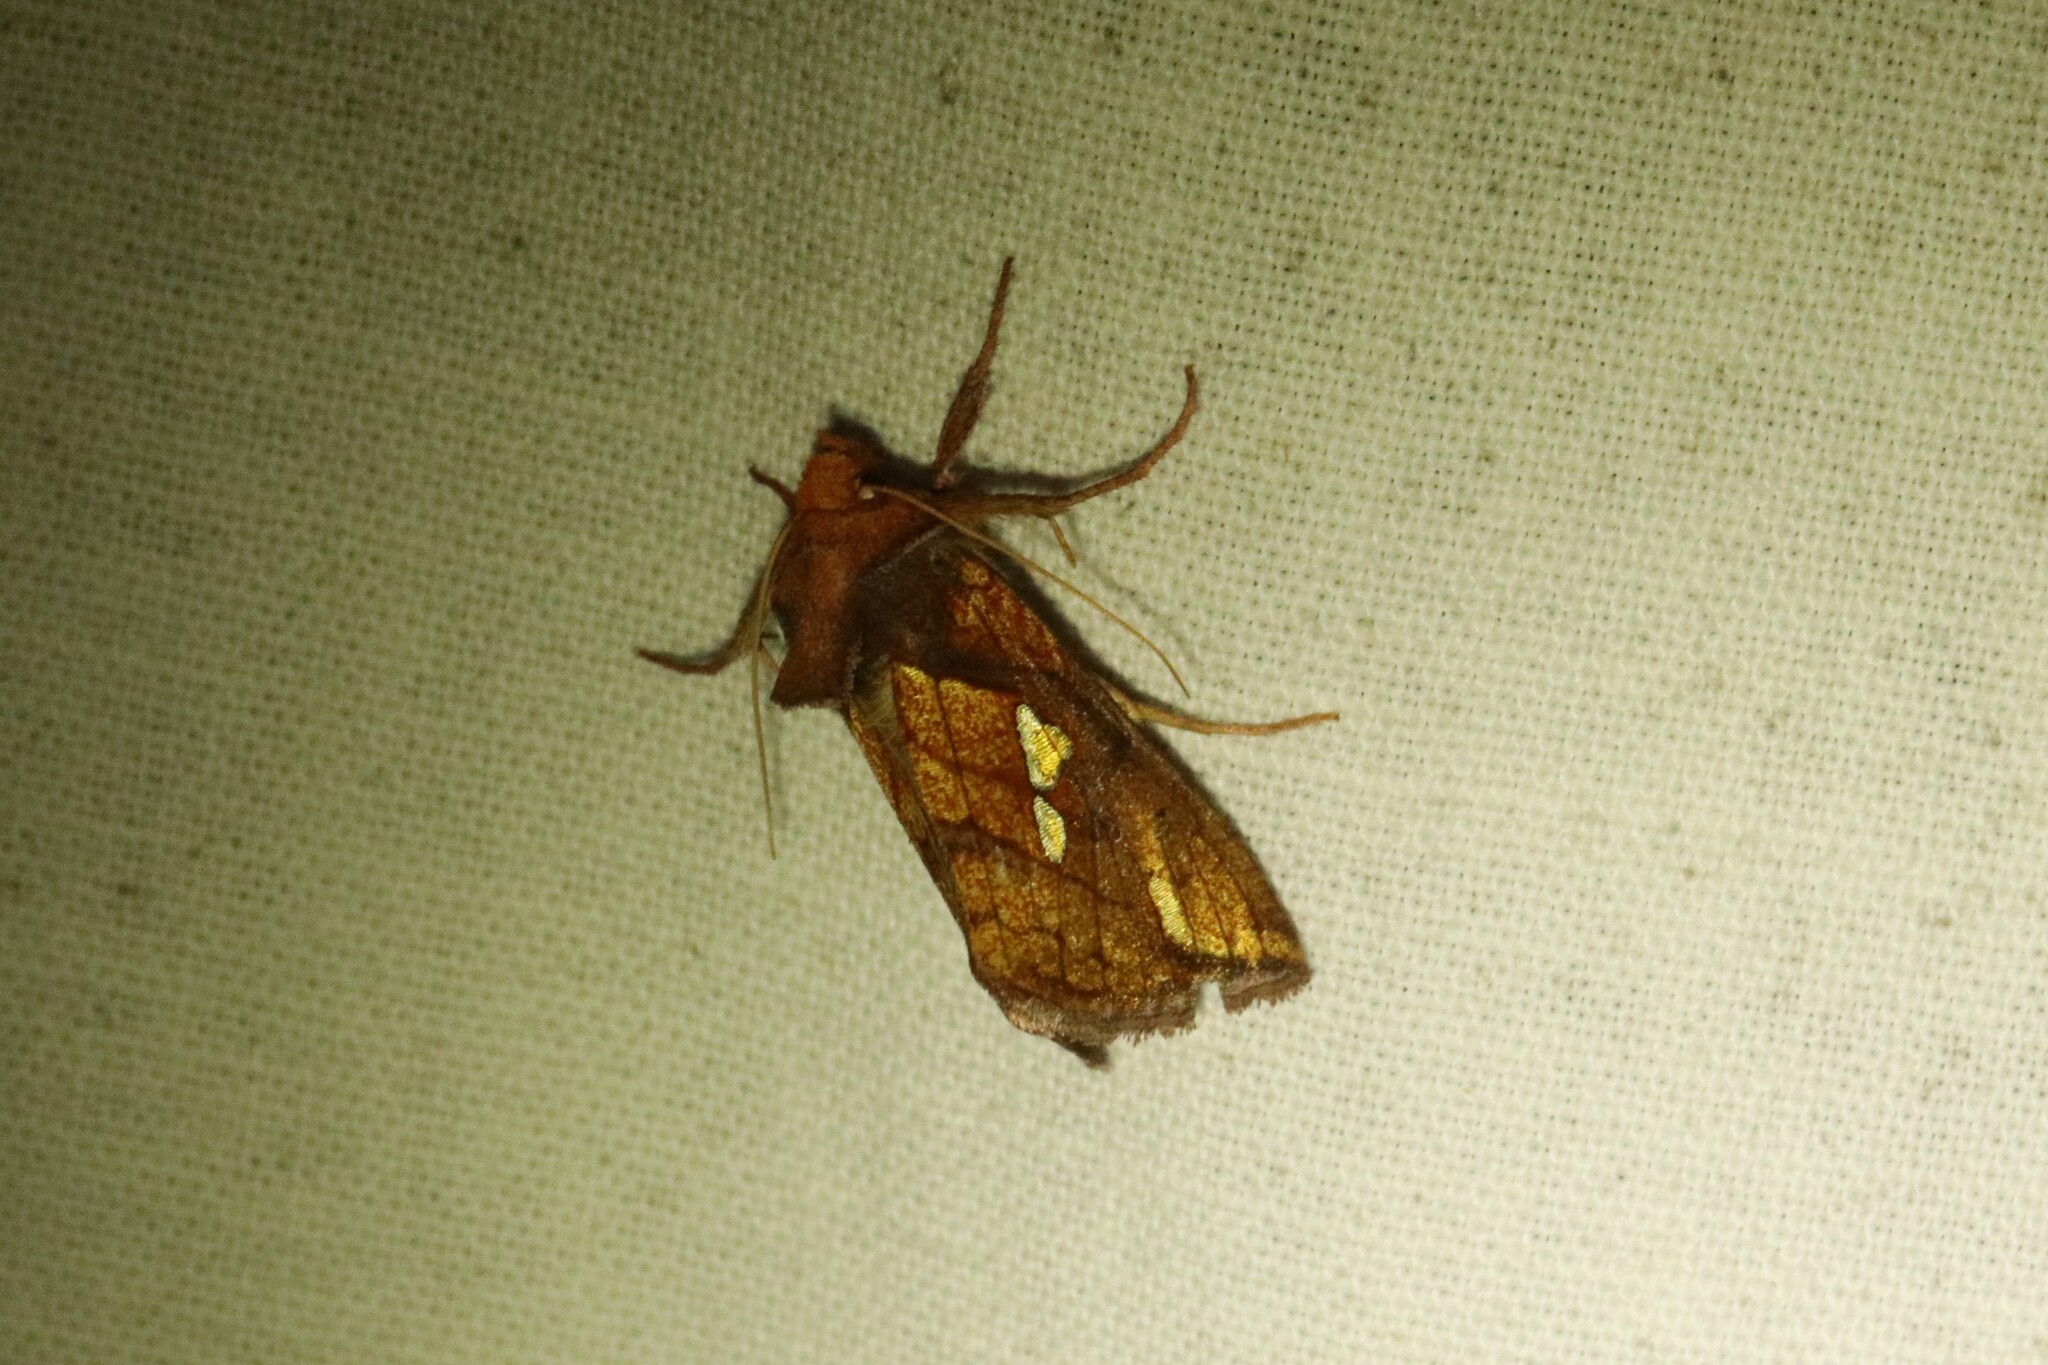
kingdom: Animalia
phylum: Arthropoda
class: Insecta
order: Lepidoptera
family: Noctuidae
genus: Plusia
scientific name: Plusia putnami
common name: Lempke's gold spot
